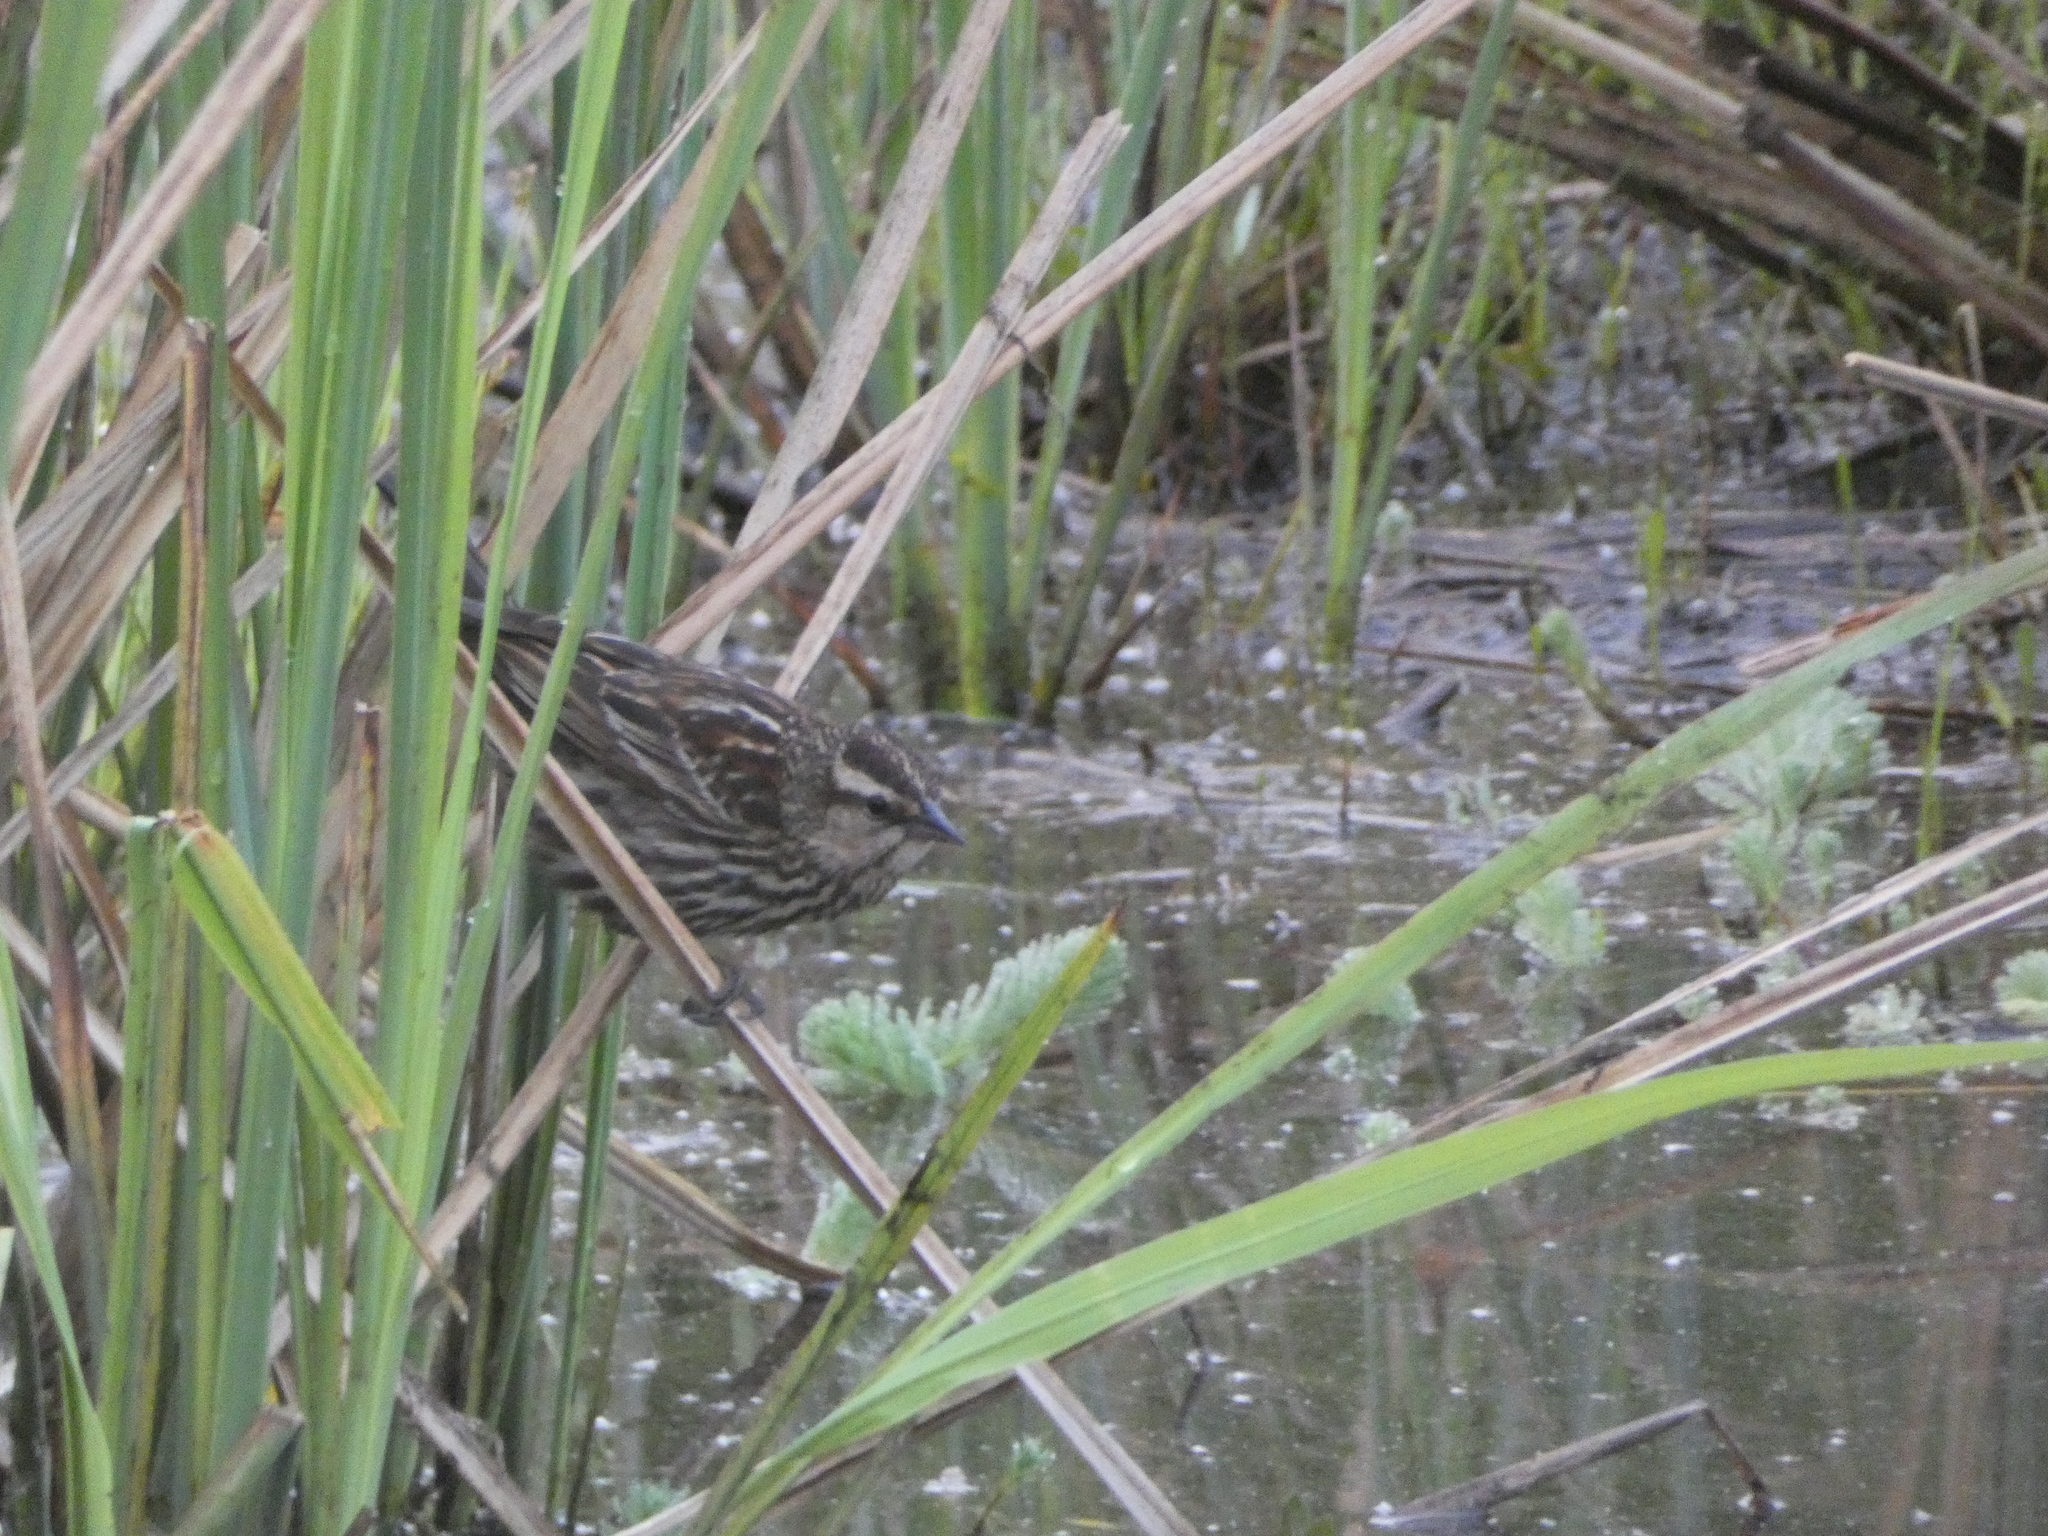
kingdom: Animalia
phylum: Chordata
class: Aves
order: Passeriformes
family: Icteridae
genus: Agelaius
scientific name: Agelaius phoeniceus
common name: Red-winged blackbird
